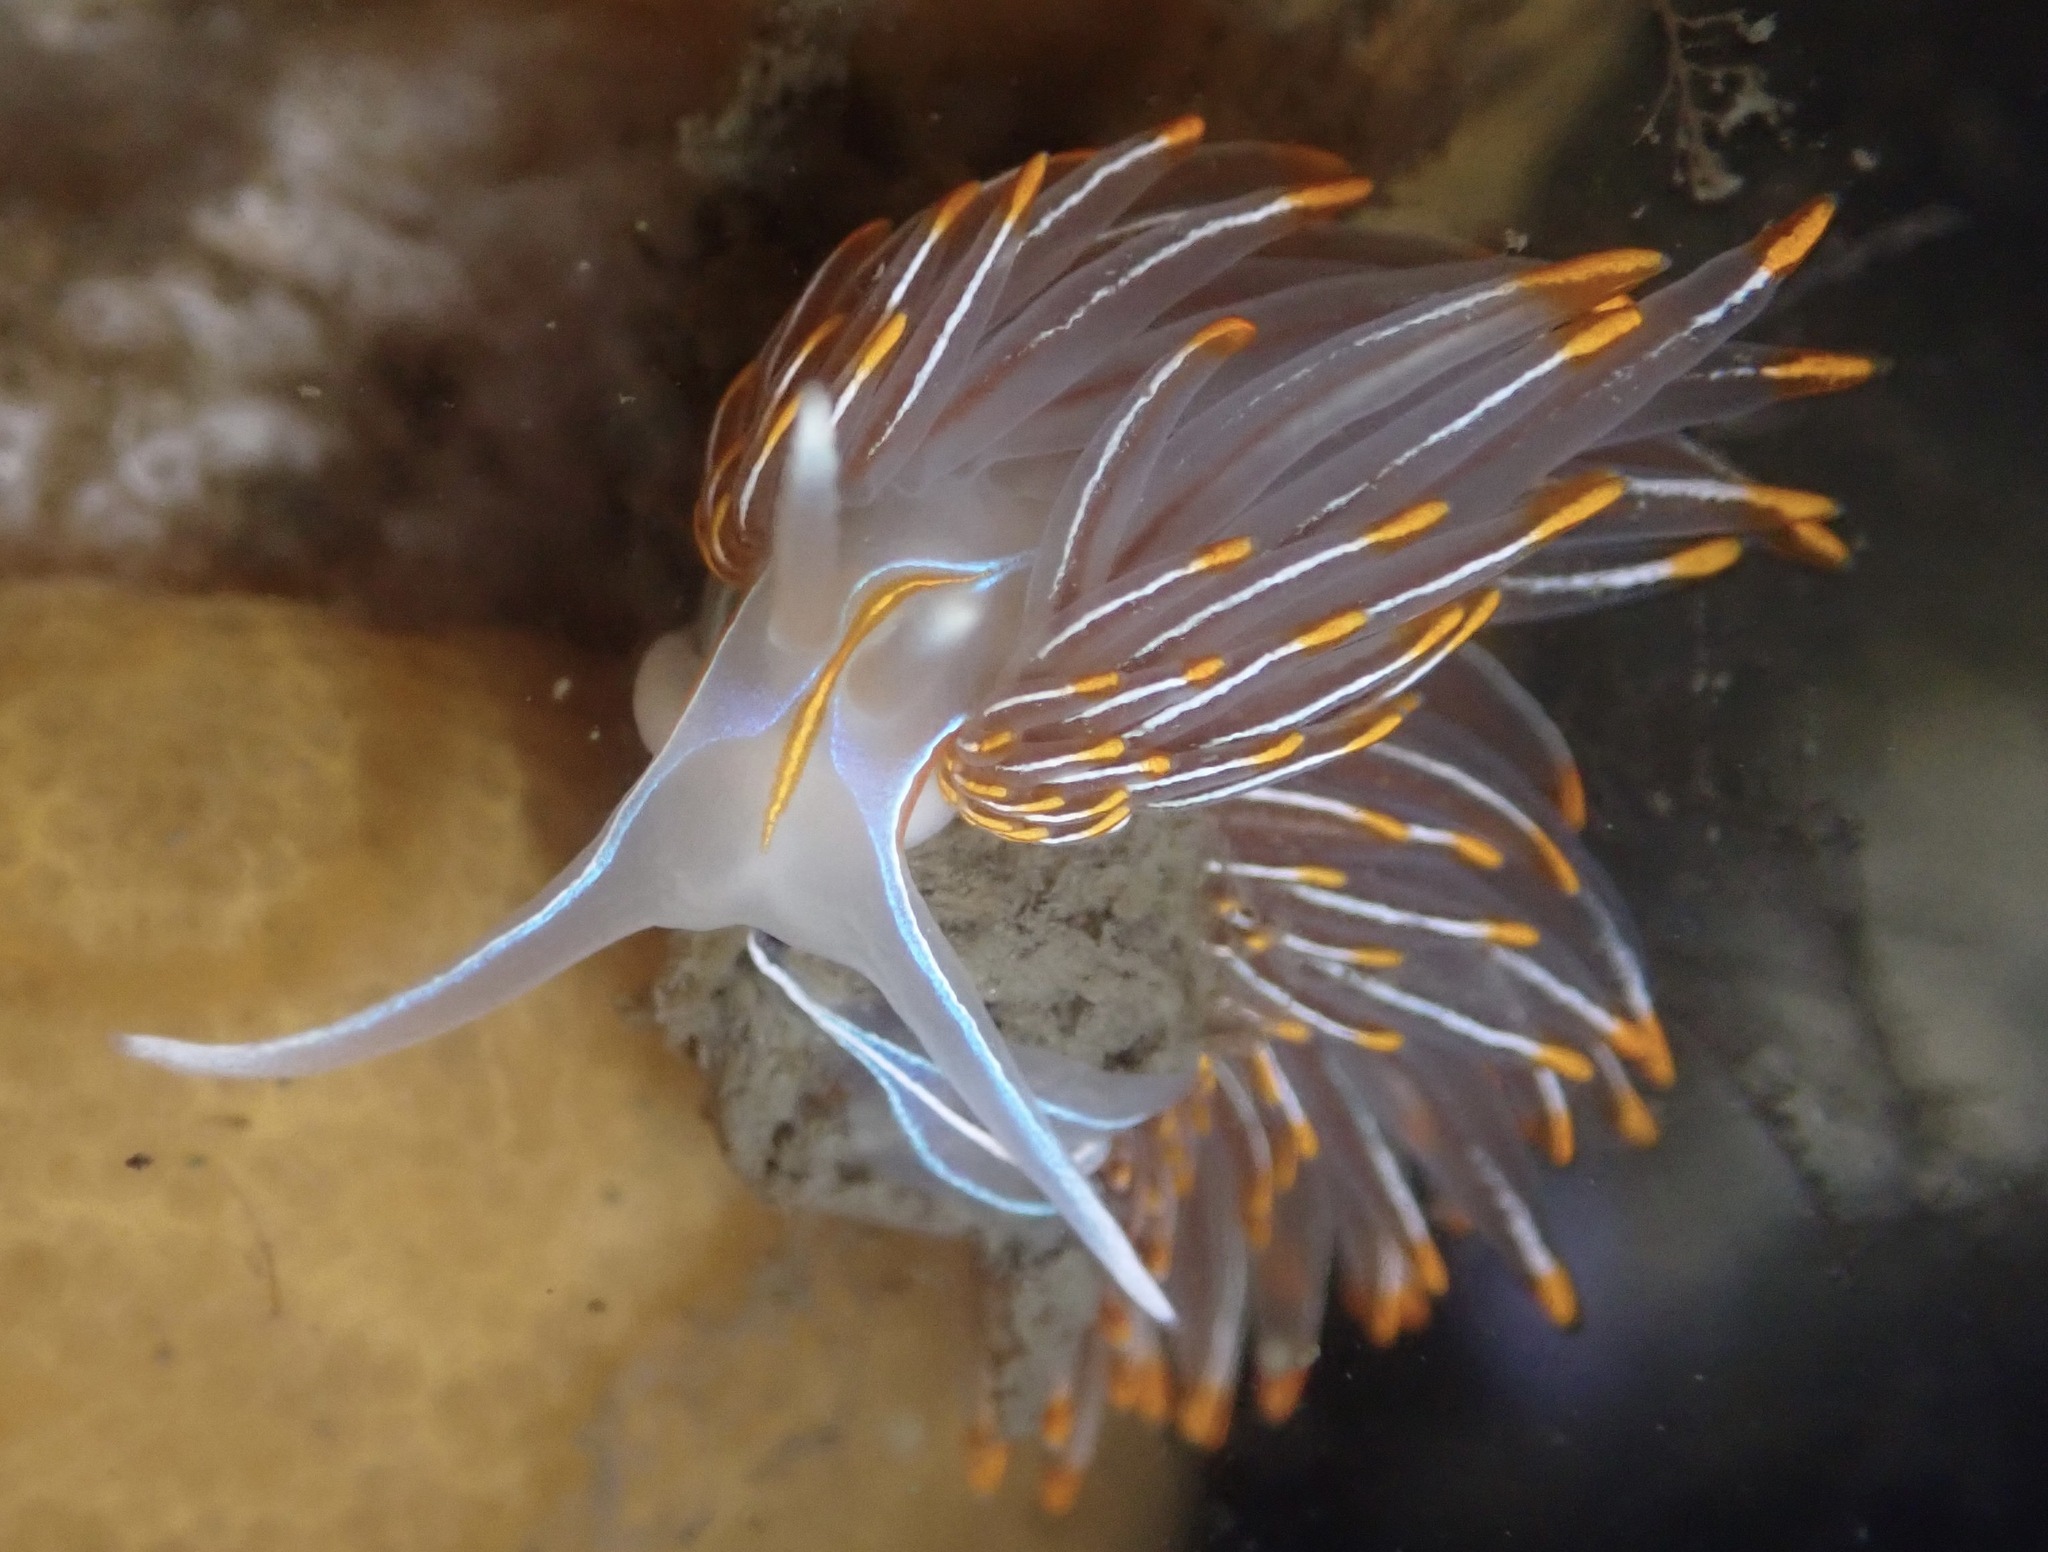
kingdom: Animalia
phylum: Mollusca
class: Gastropoda
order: Nudibranchia
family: Myrrhinidae
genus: Hermissenda
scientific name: Hermissenda crassicornis
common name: Hermissenda
